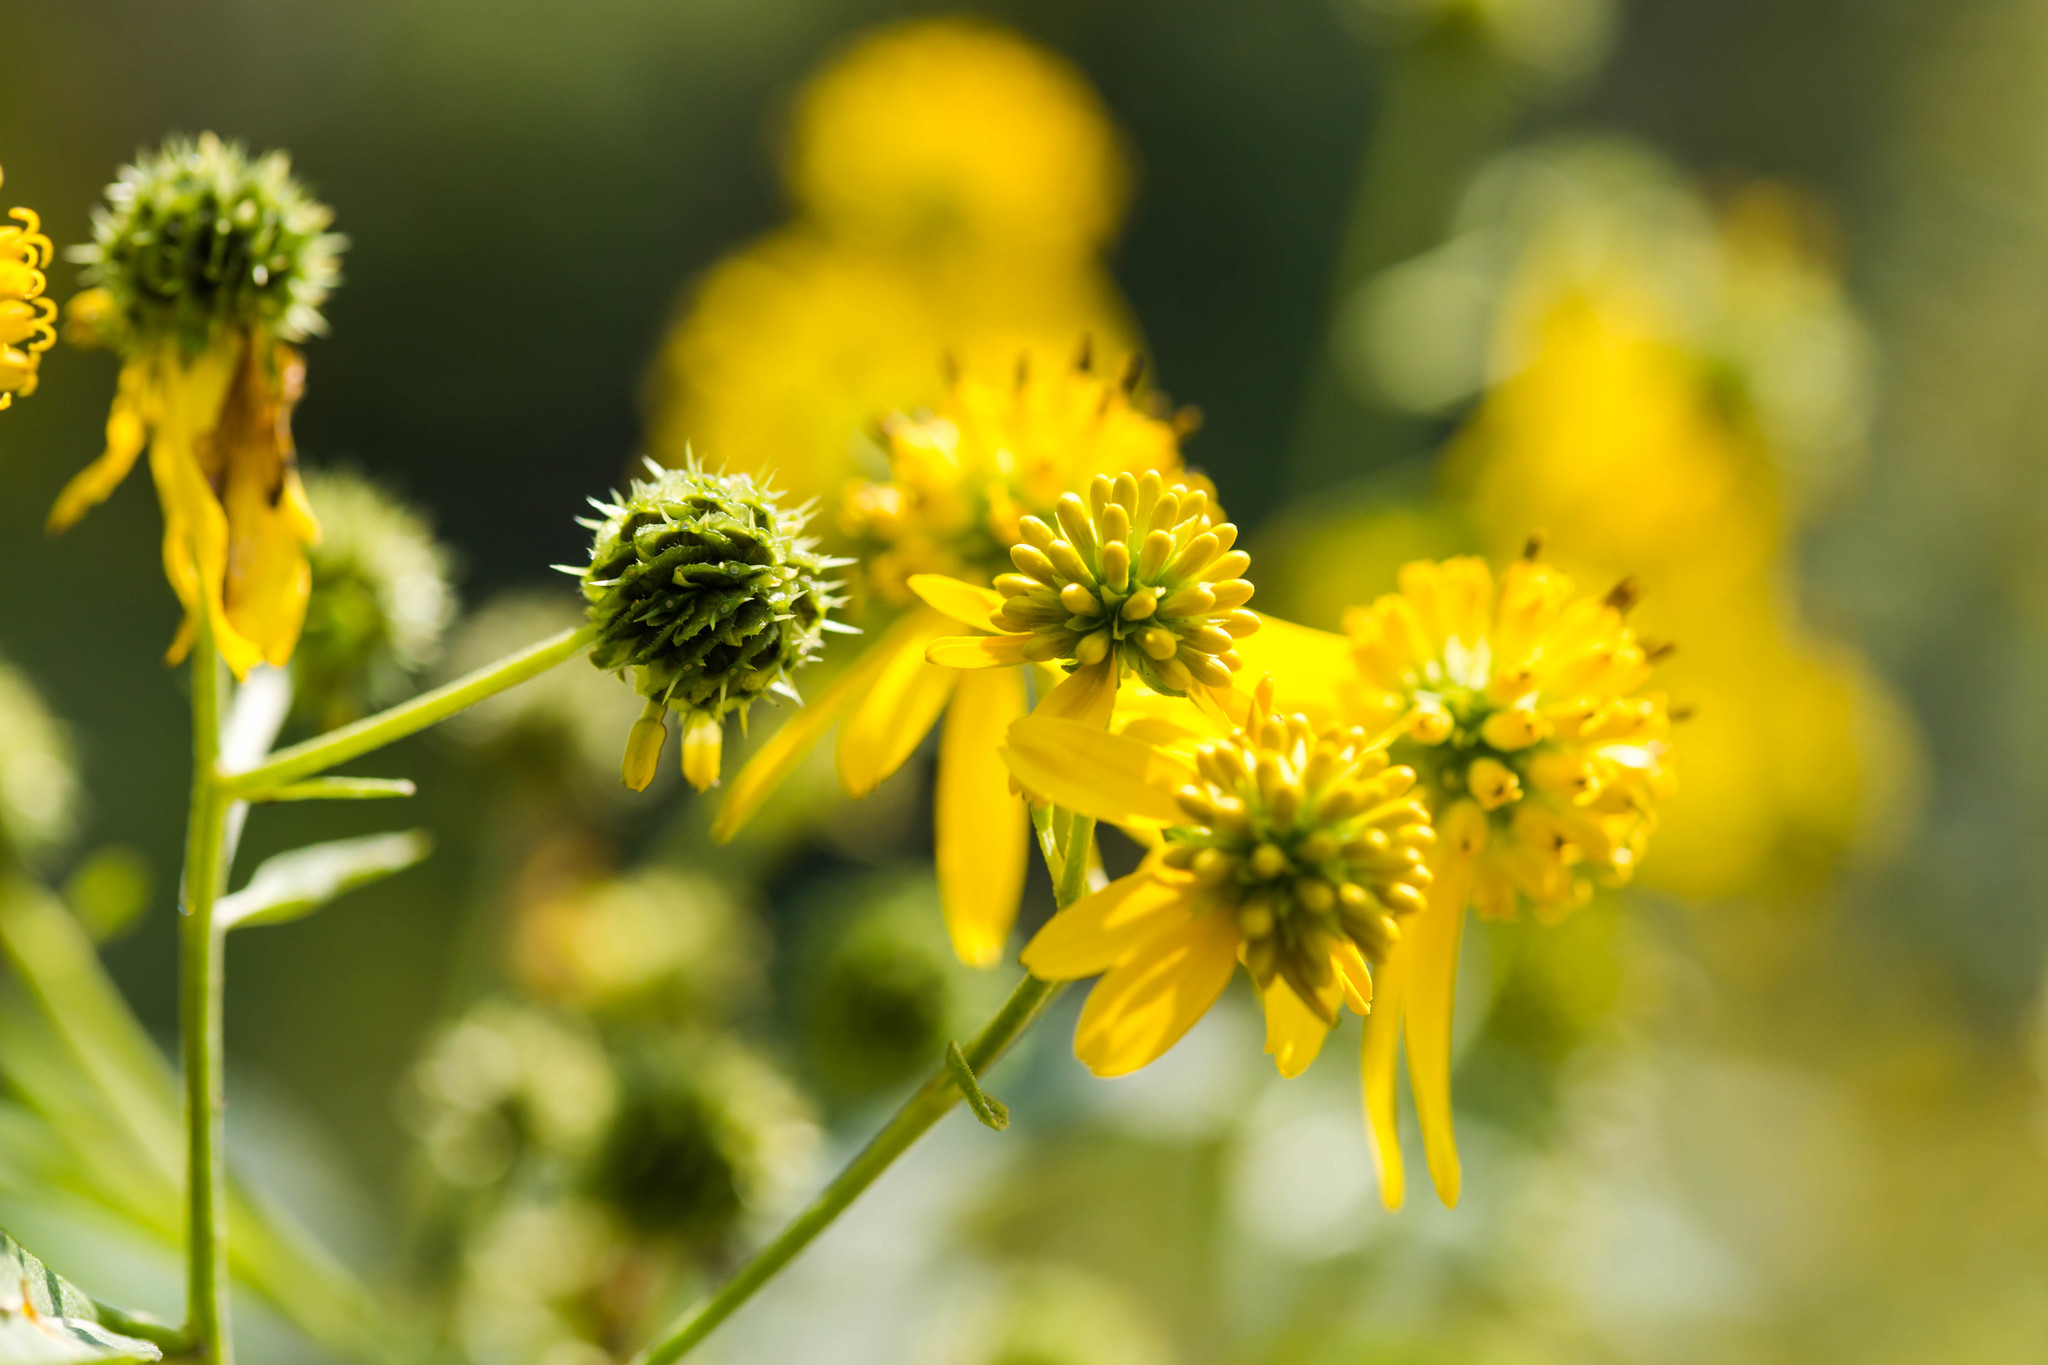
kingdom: Plantae
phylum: Tracheophyta
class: Magnoliopsida
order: Asterales
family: Asteraceae
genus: Verbesina
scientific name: Verbesina alternifolia
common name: Wingstem
